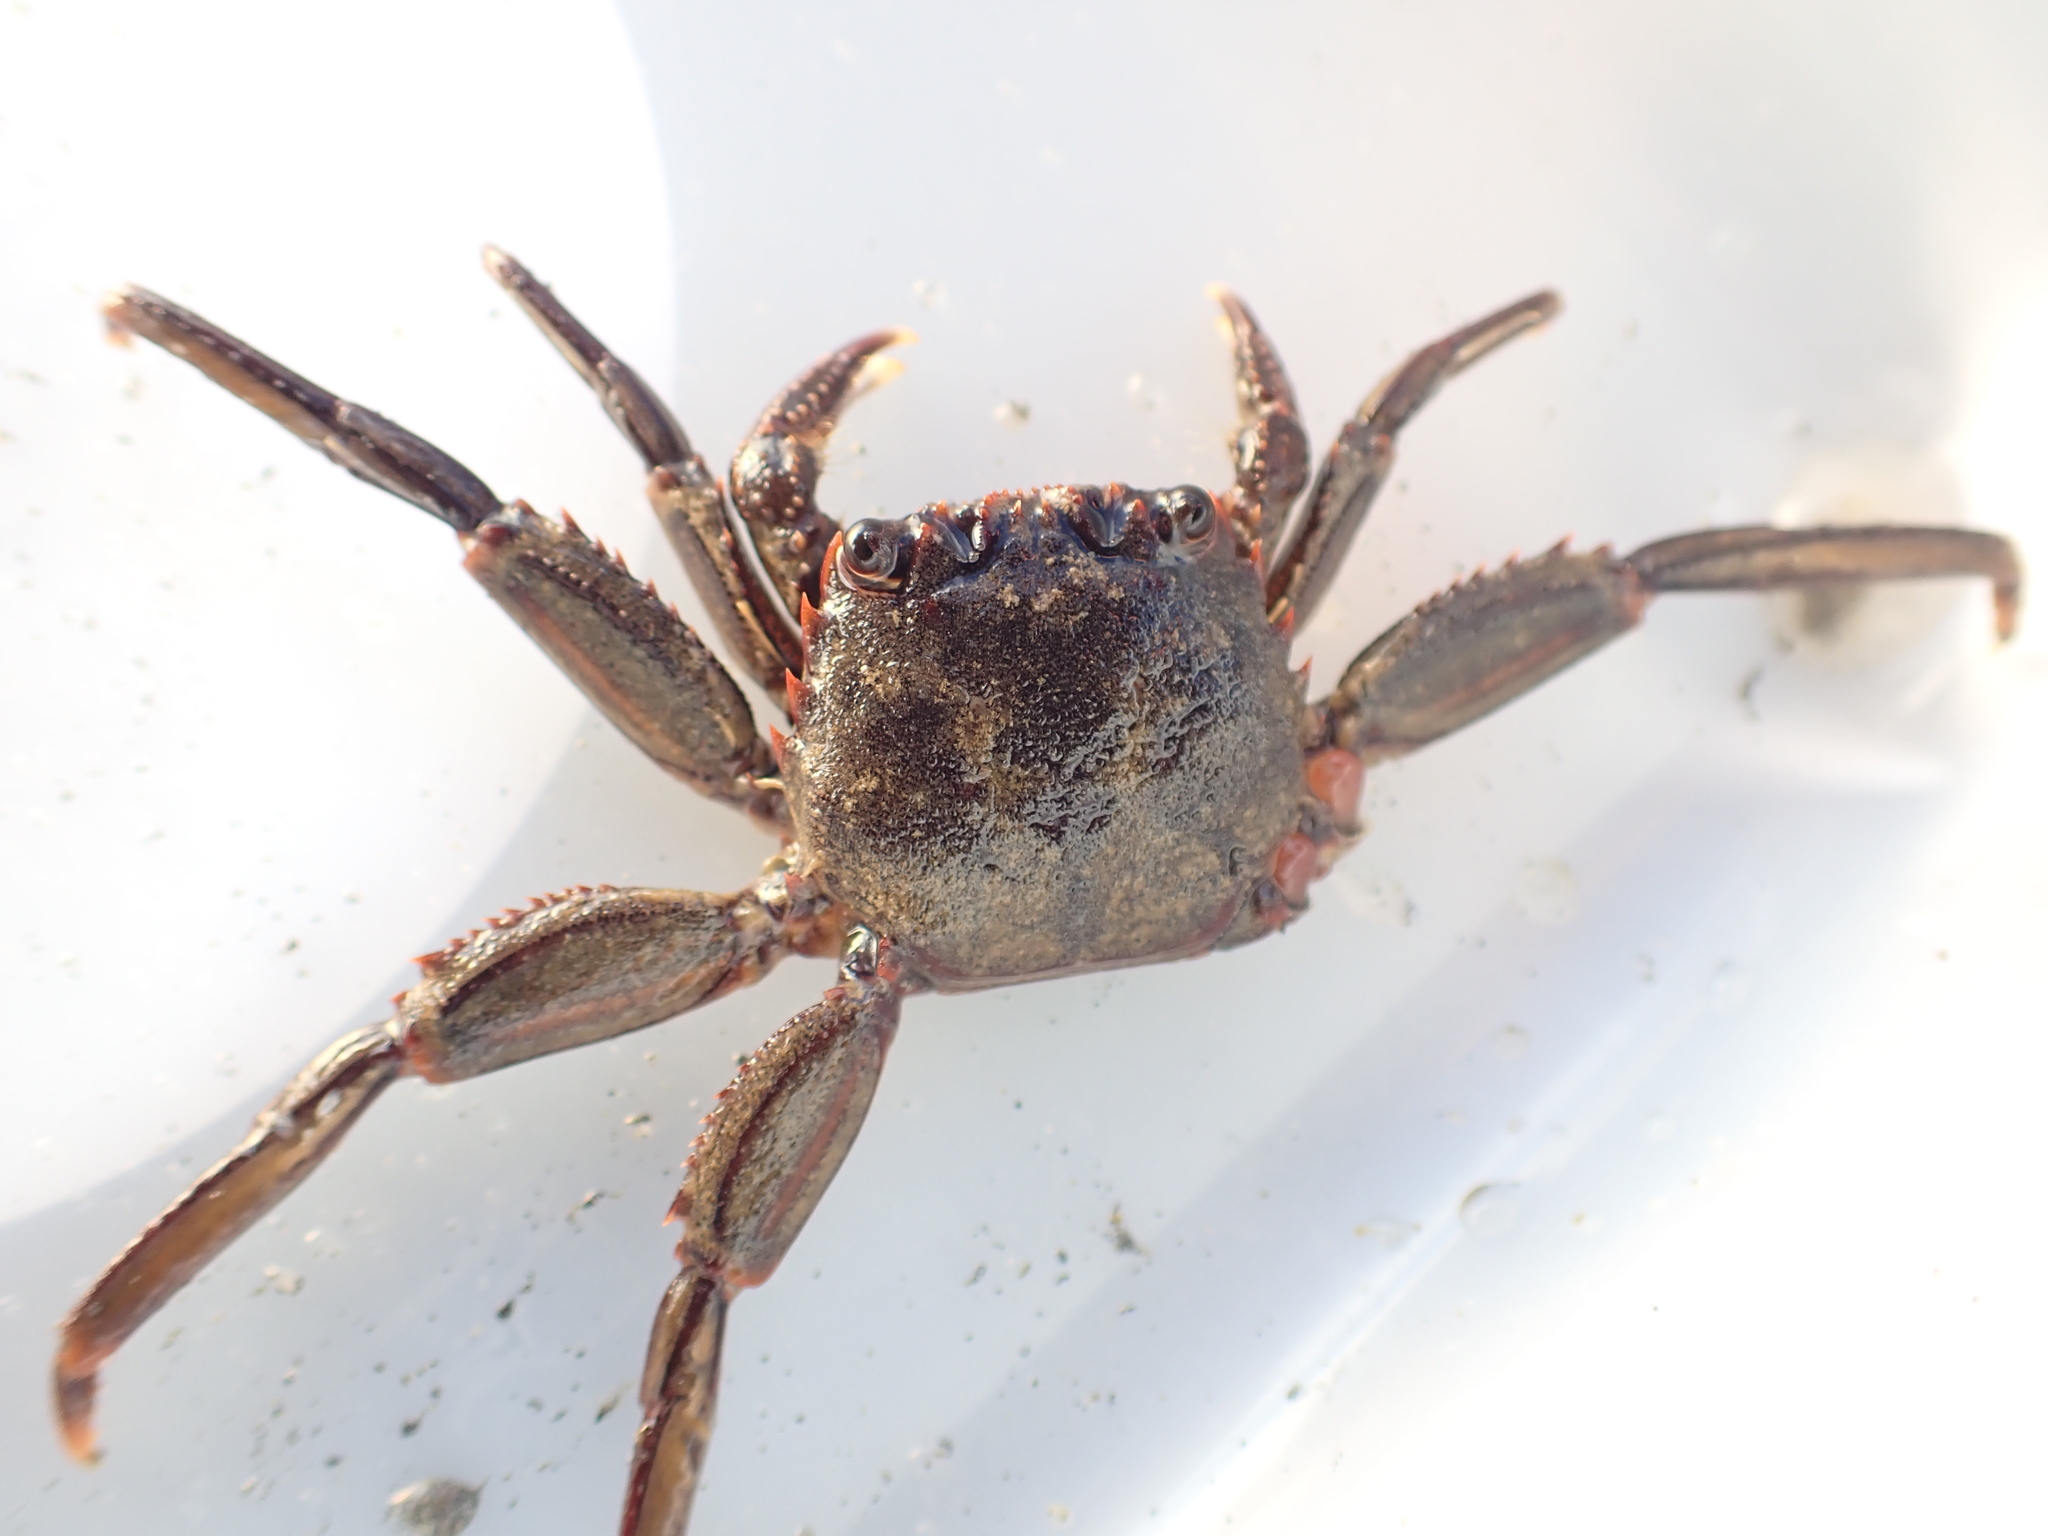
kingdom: Animalia
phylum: Arthropoda
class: Malacostraca
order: Decapoda
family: Plagusiidae
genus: Guinusia
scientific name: Guinusia chabrus
